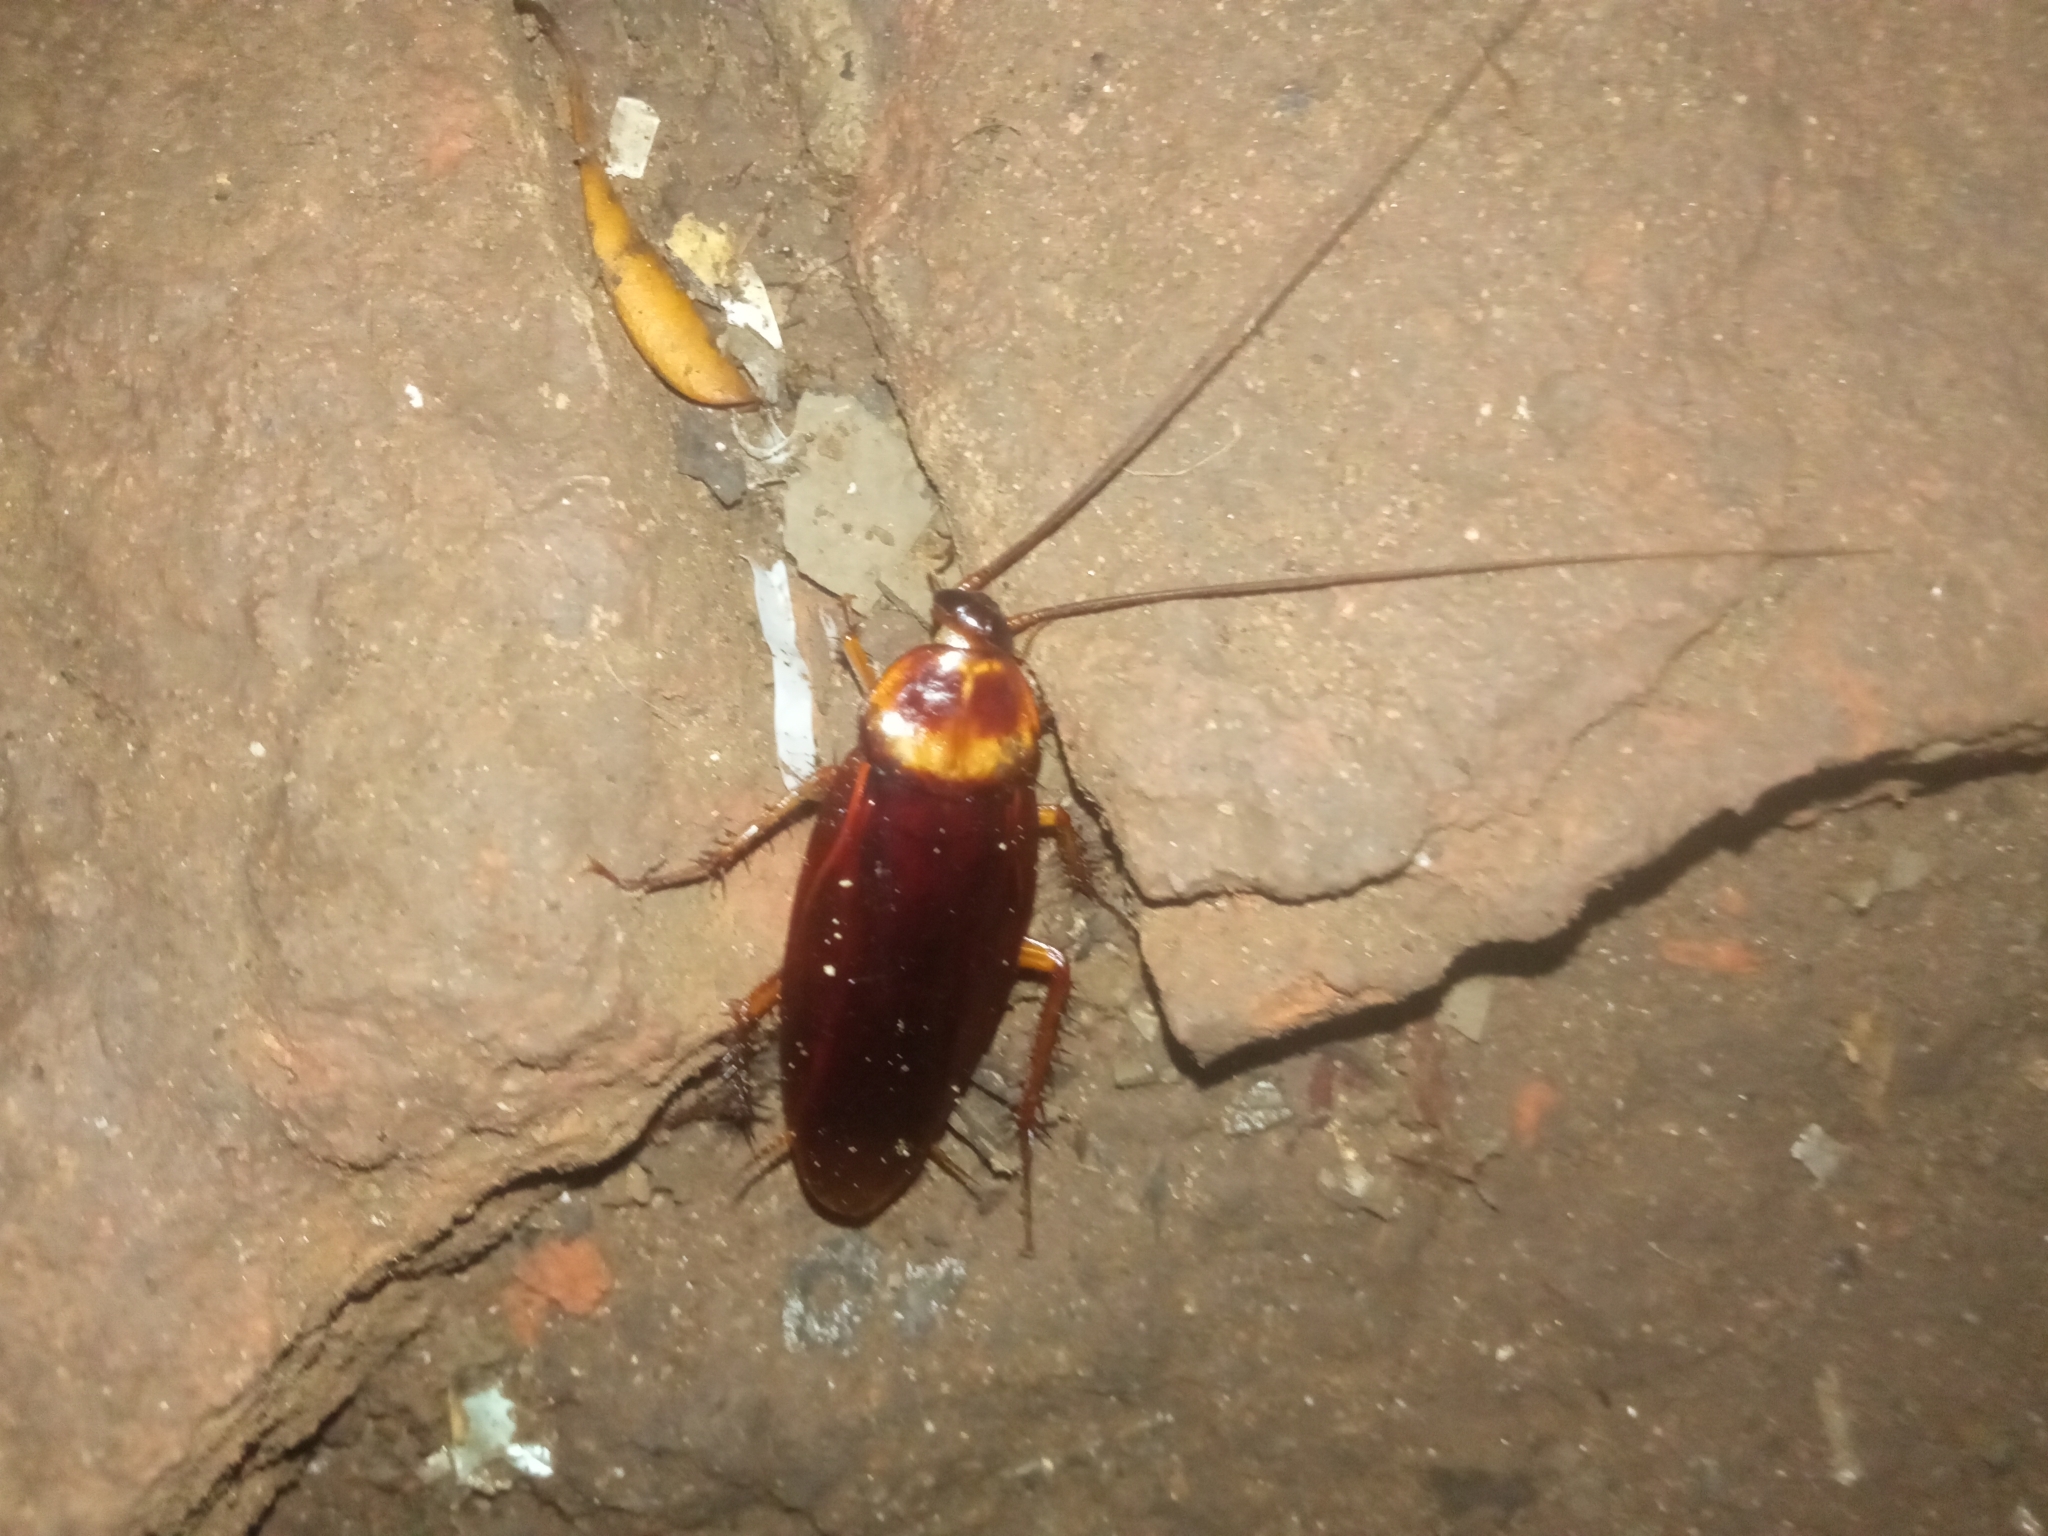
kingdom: Animalia
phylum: Arthropoda
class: Insecta
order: Blattodea
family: Blattidae
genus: Periplaneta
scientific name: Periplaneta americana
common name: American cockroach
